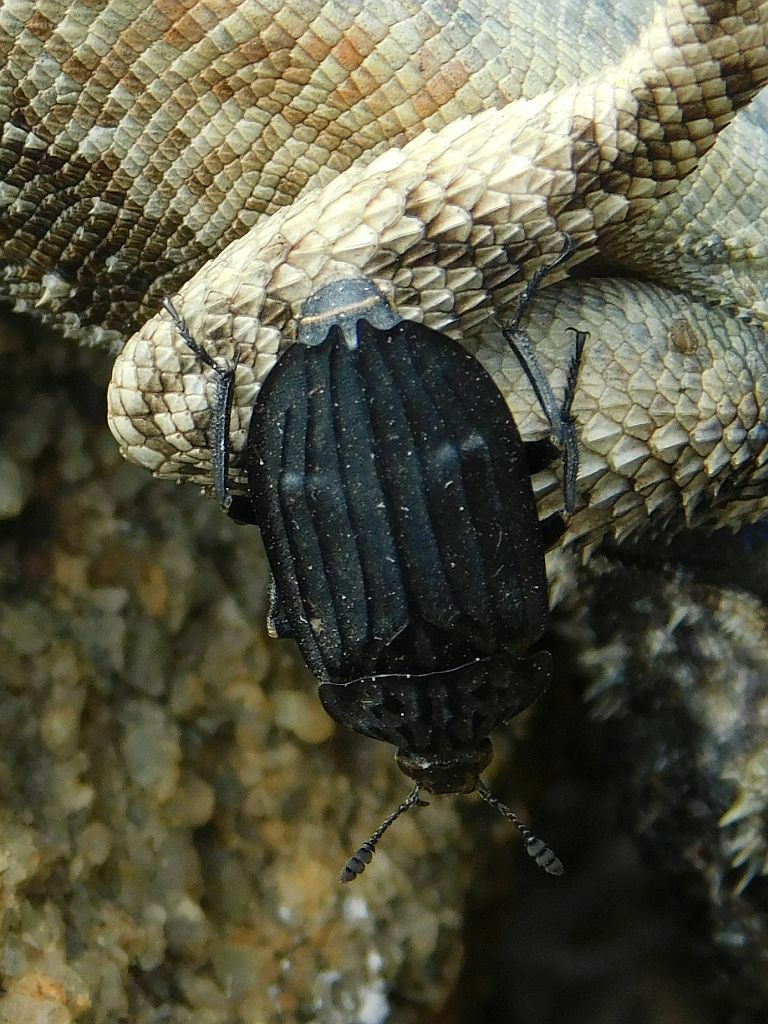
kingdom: Animalia
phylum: Arthropoda
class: Insecta
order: Coleoptera
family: Staphylinidae
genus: Thanatophilus
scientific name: Thanatophilus capensis
